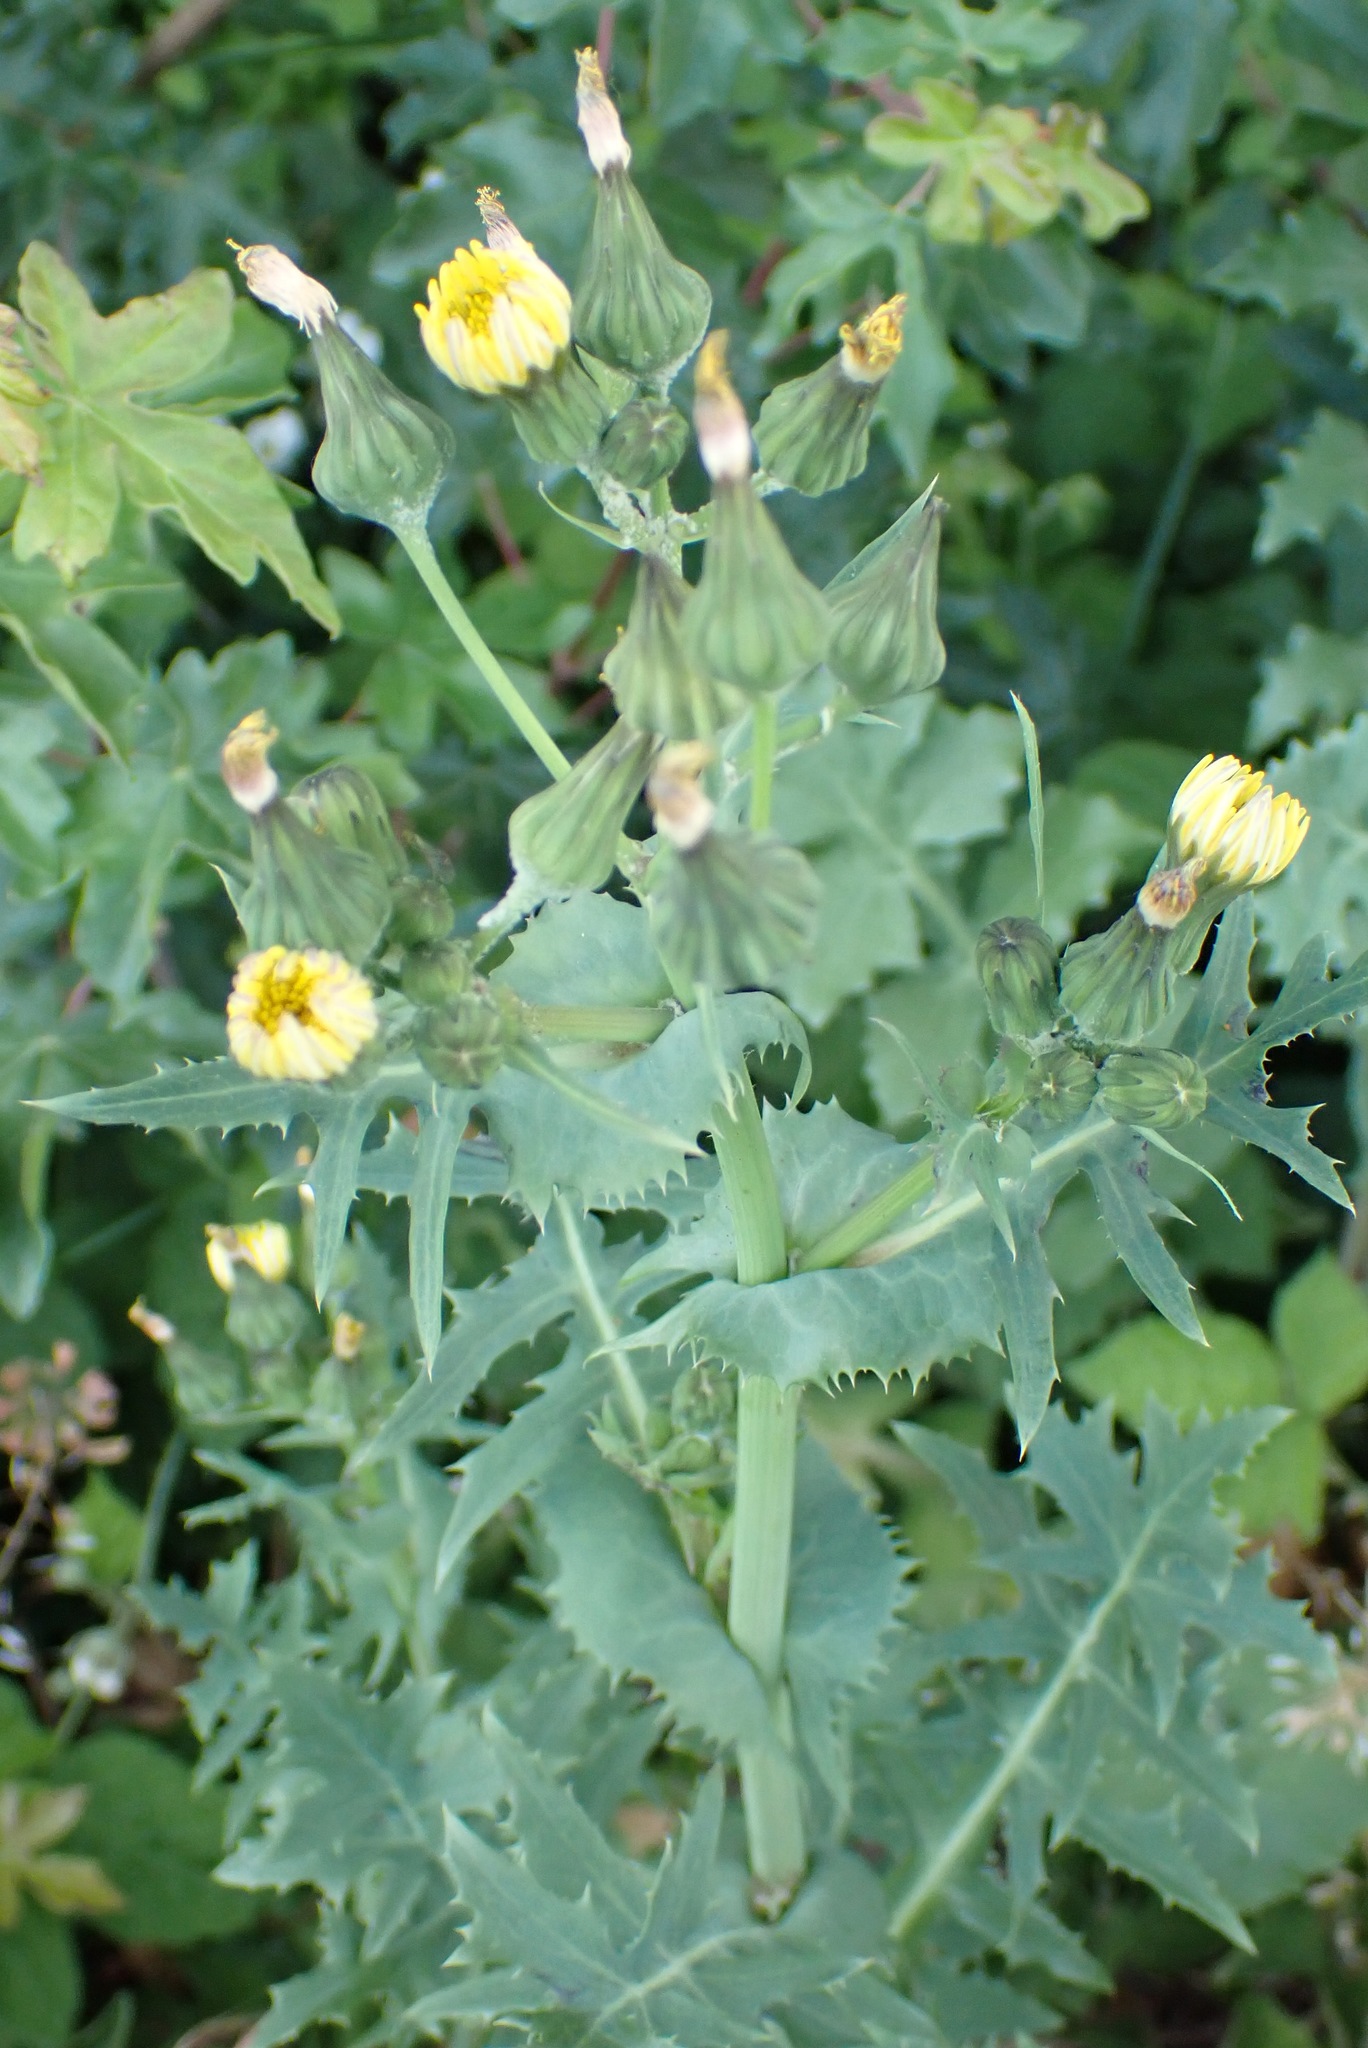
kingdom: Plantae
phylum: Tracheophyta
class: Magnoliopsida
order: Asterales
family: Asteraceae
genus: Sonchus
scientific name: Sonchus oleraceus
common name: Common sowthistle
